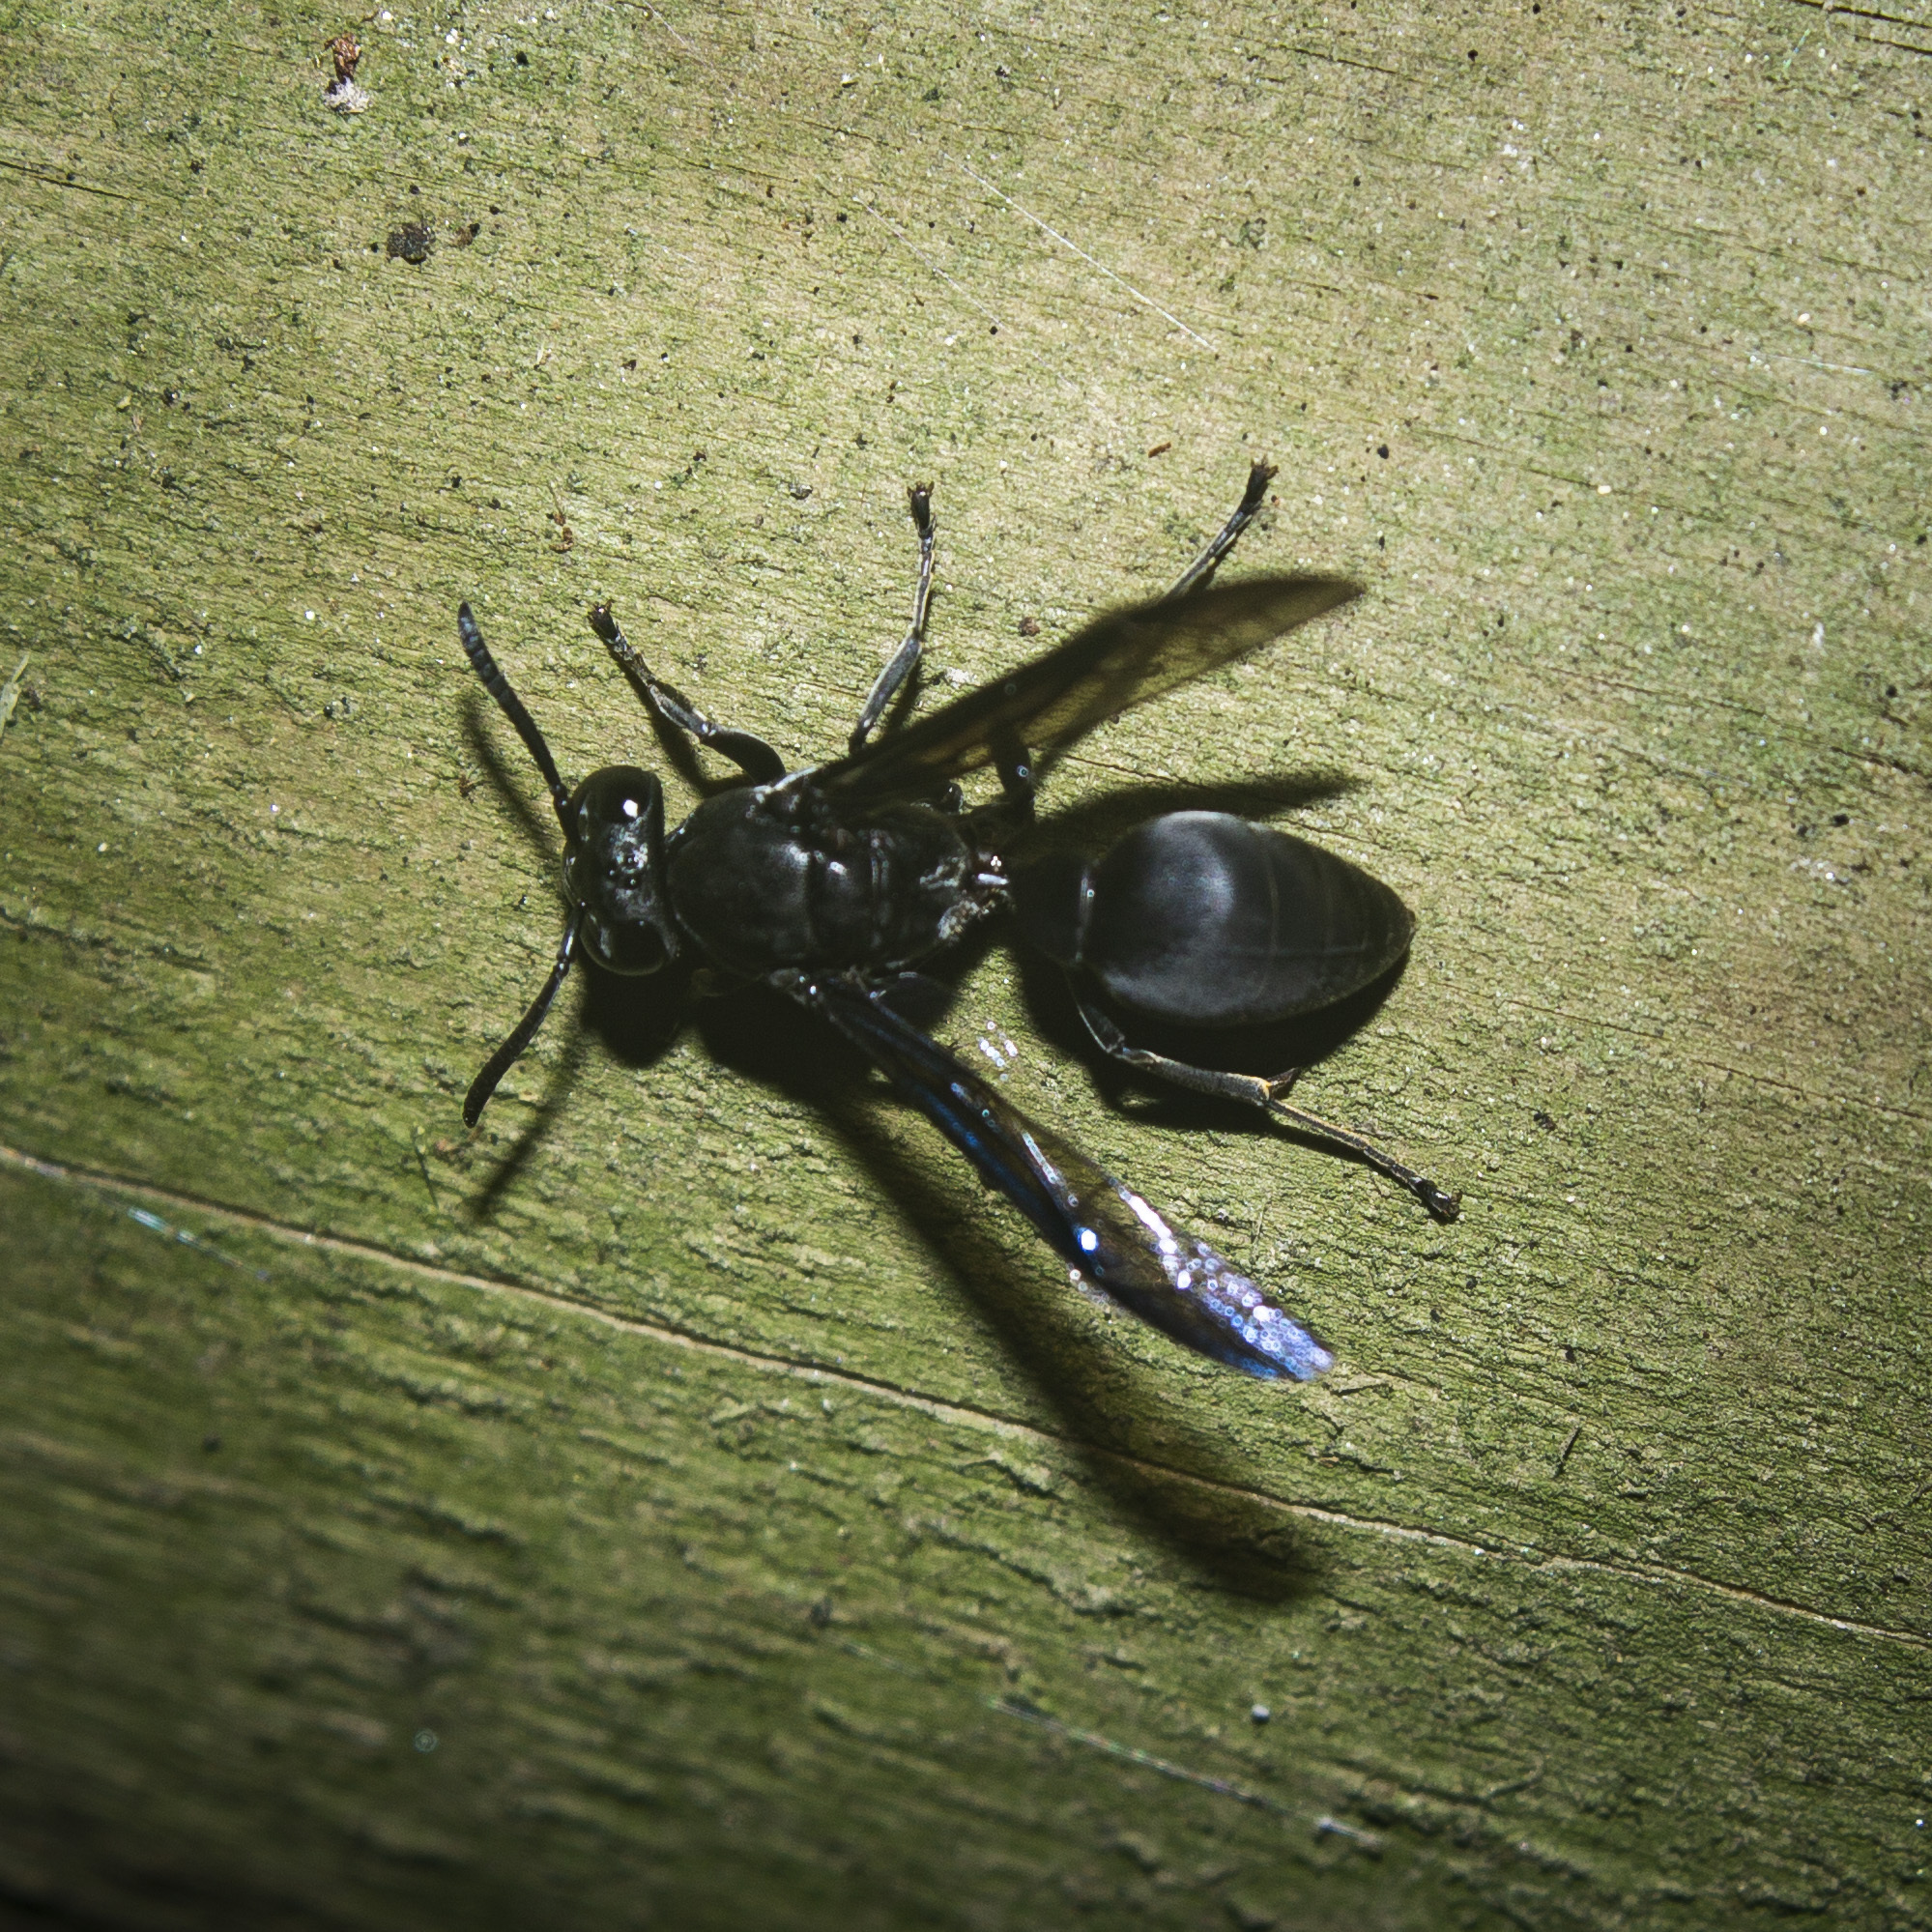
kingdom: Animalia
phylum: Arthropoda
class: Insecta
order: Hymenoptera
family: Eumenidae
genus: Polybia
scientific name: Polybia simillima
